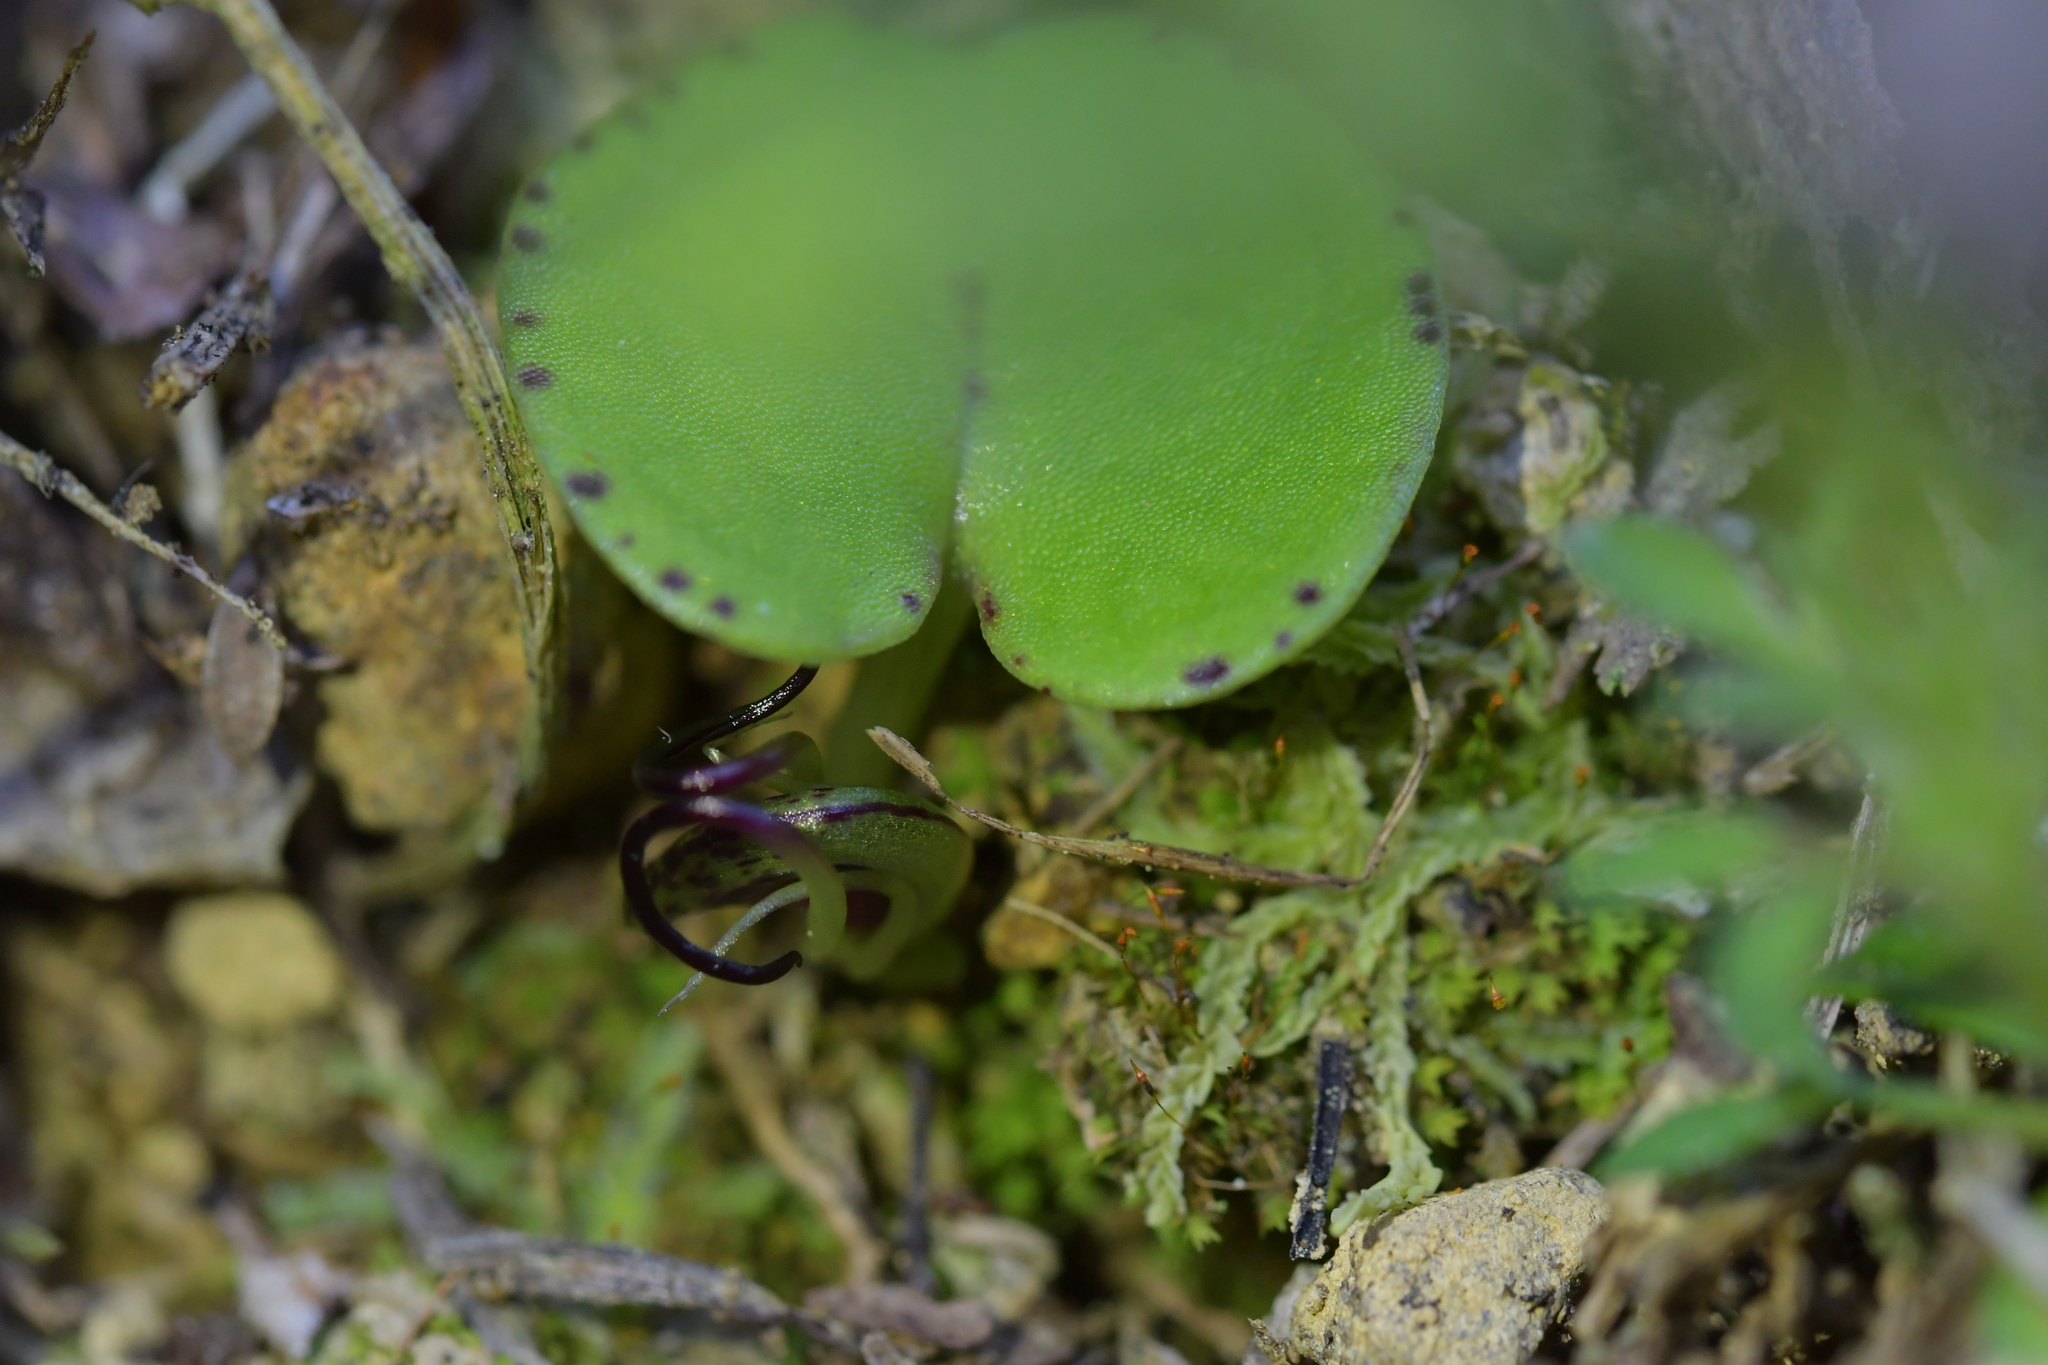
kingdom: Plantae
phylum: Tracheophyta
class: Liliopsida
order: Asparagales
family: Orchidaceae
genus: Corybas
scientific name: Corybas macranthus
